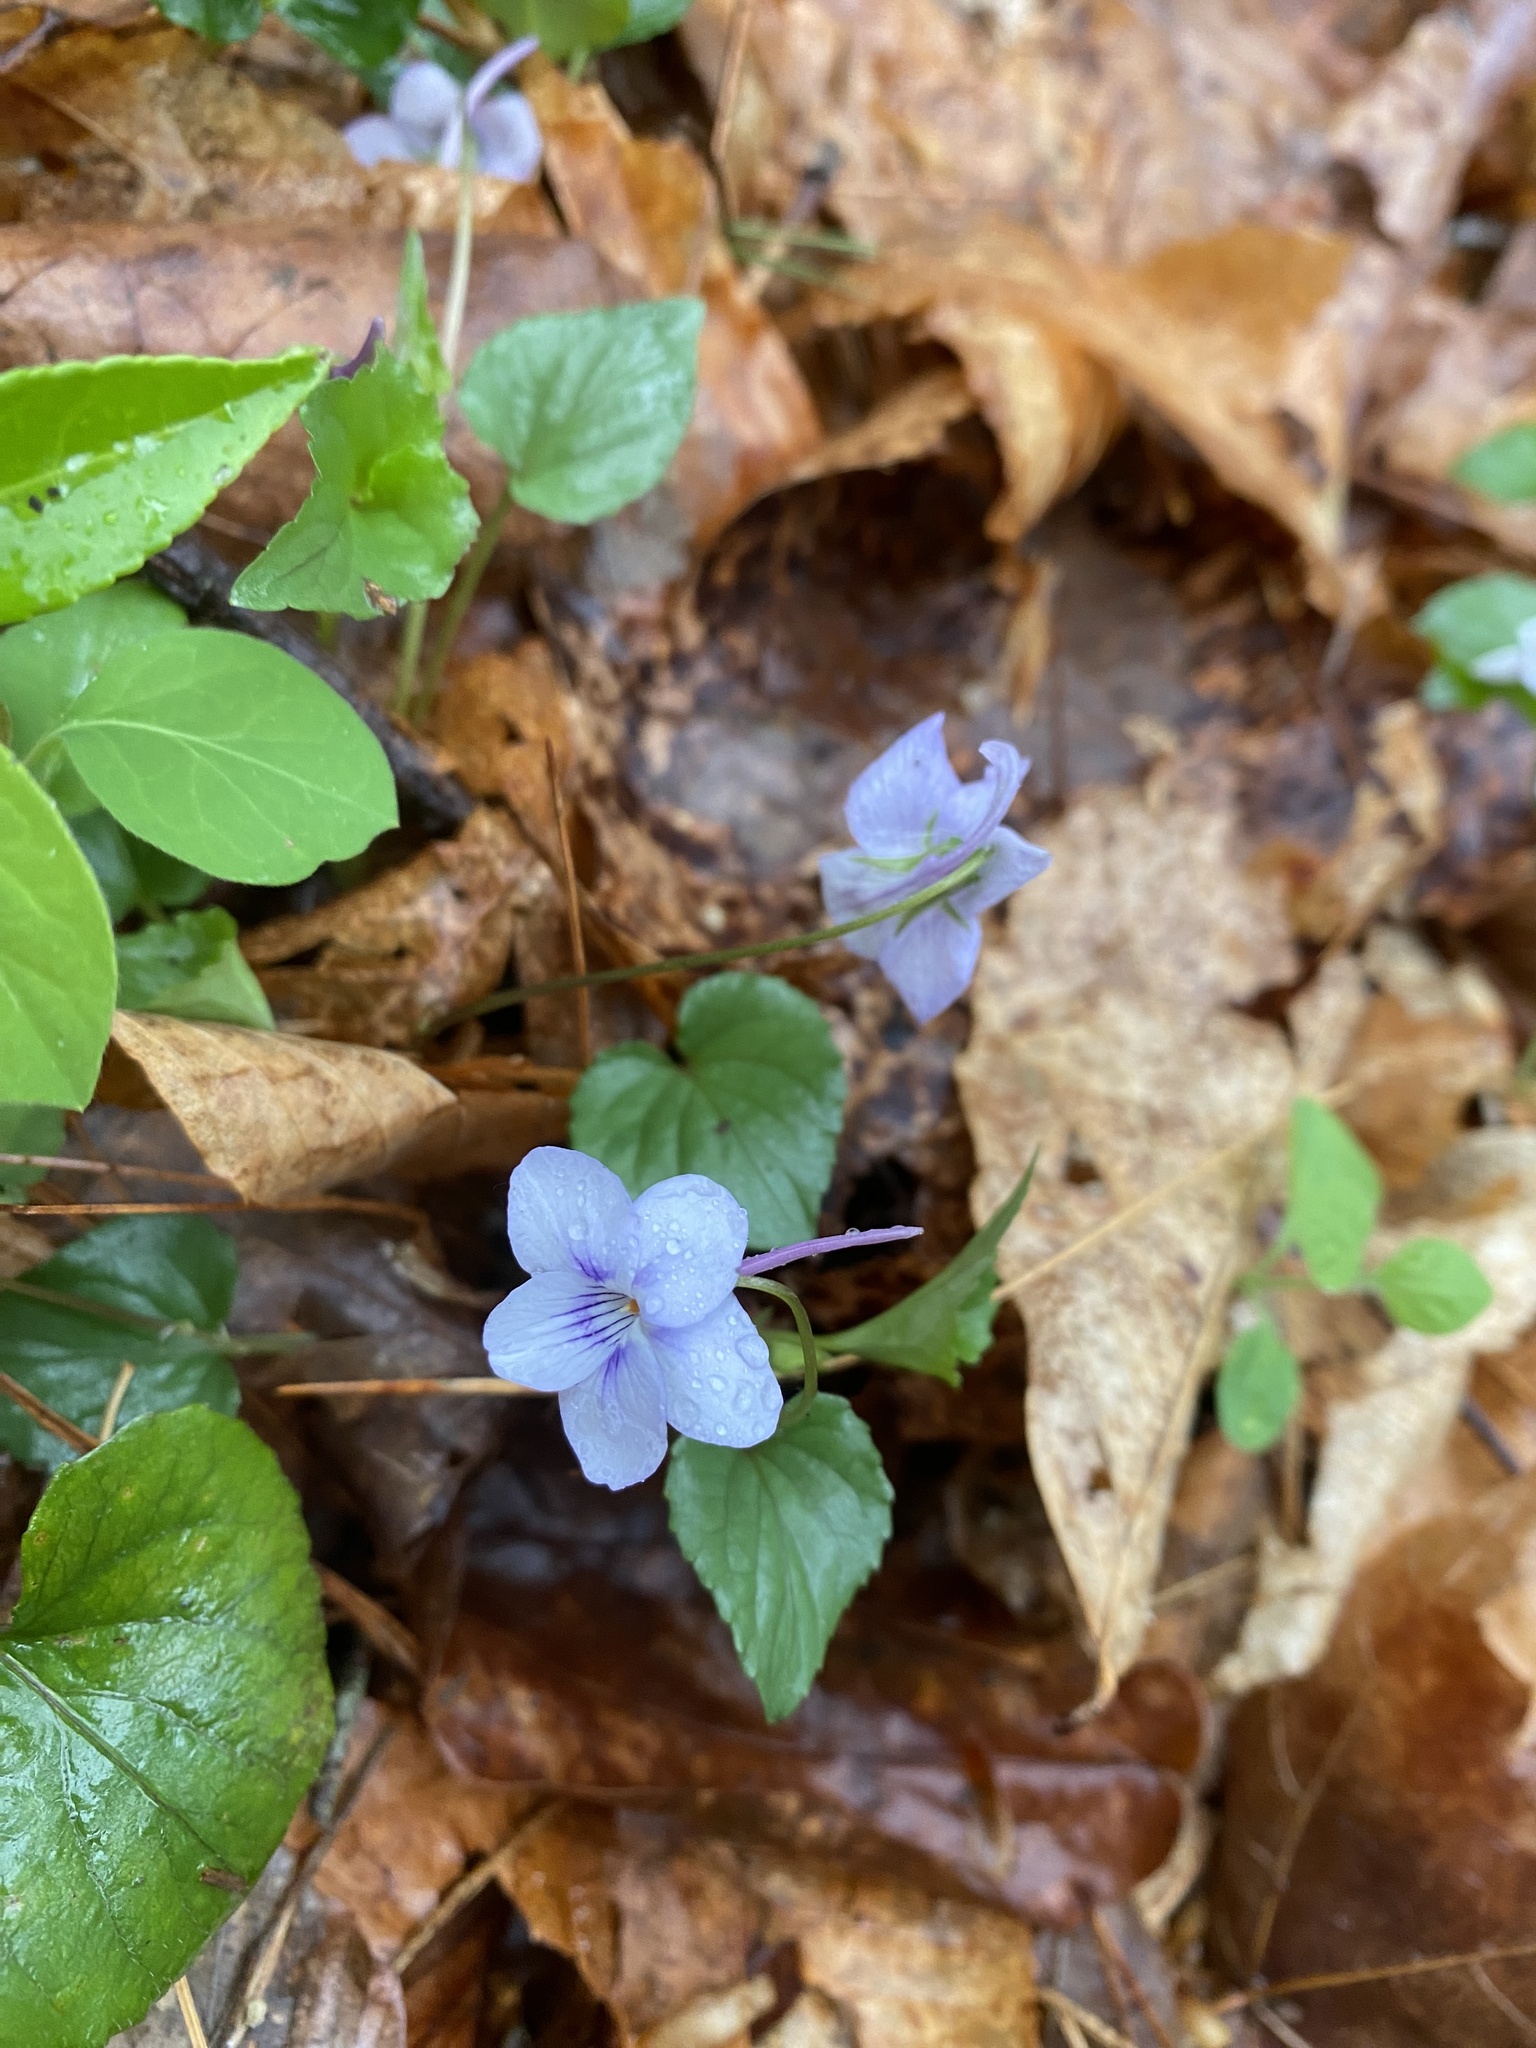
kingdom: Plantae
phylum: Tracheophyta
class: Magnoliopsida
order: Malpighiales
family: Violaceae
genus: Viola
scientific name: Viola rostrata
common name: Long-spur violet
